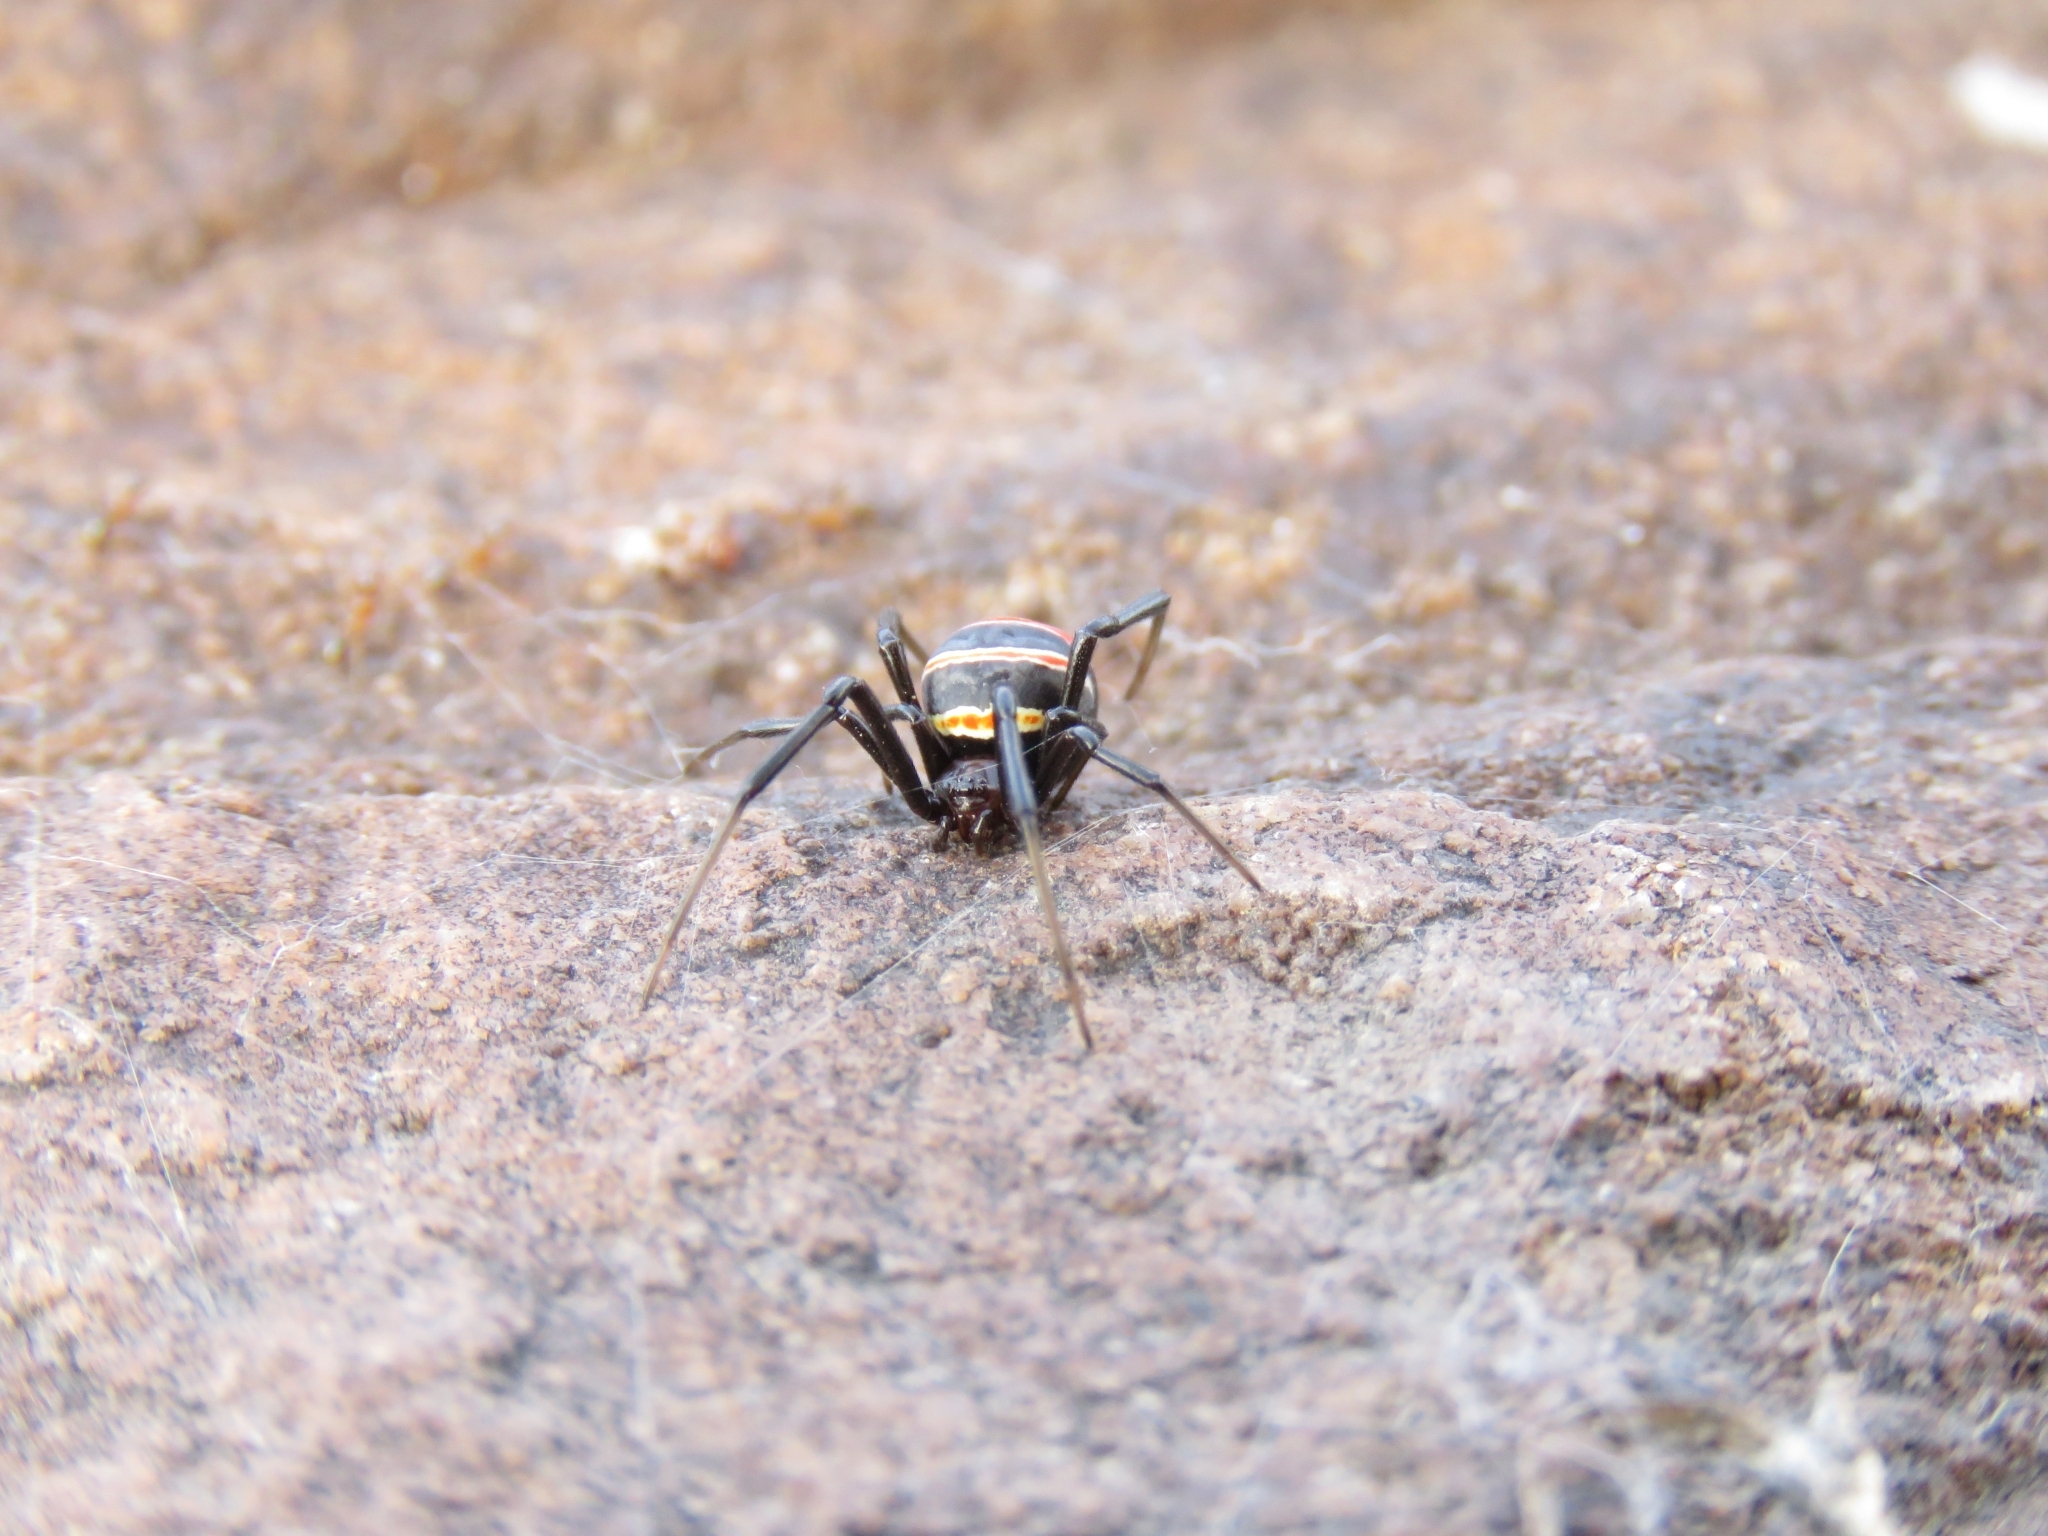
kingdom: Animalia
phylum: Arthropoda
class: Arachnida
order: Araneae
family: Theridiidae
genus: Latrodectus
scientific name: Latrodectus renivulvatus
